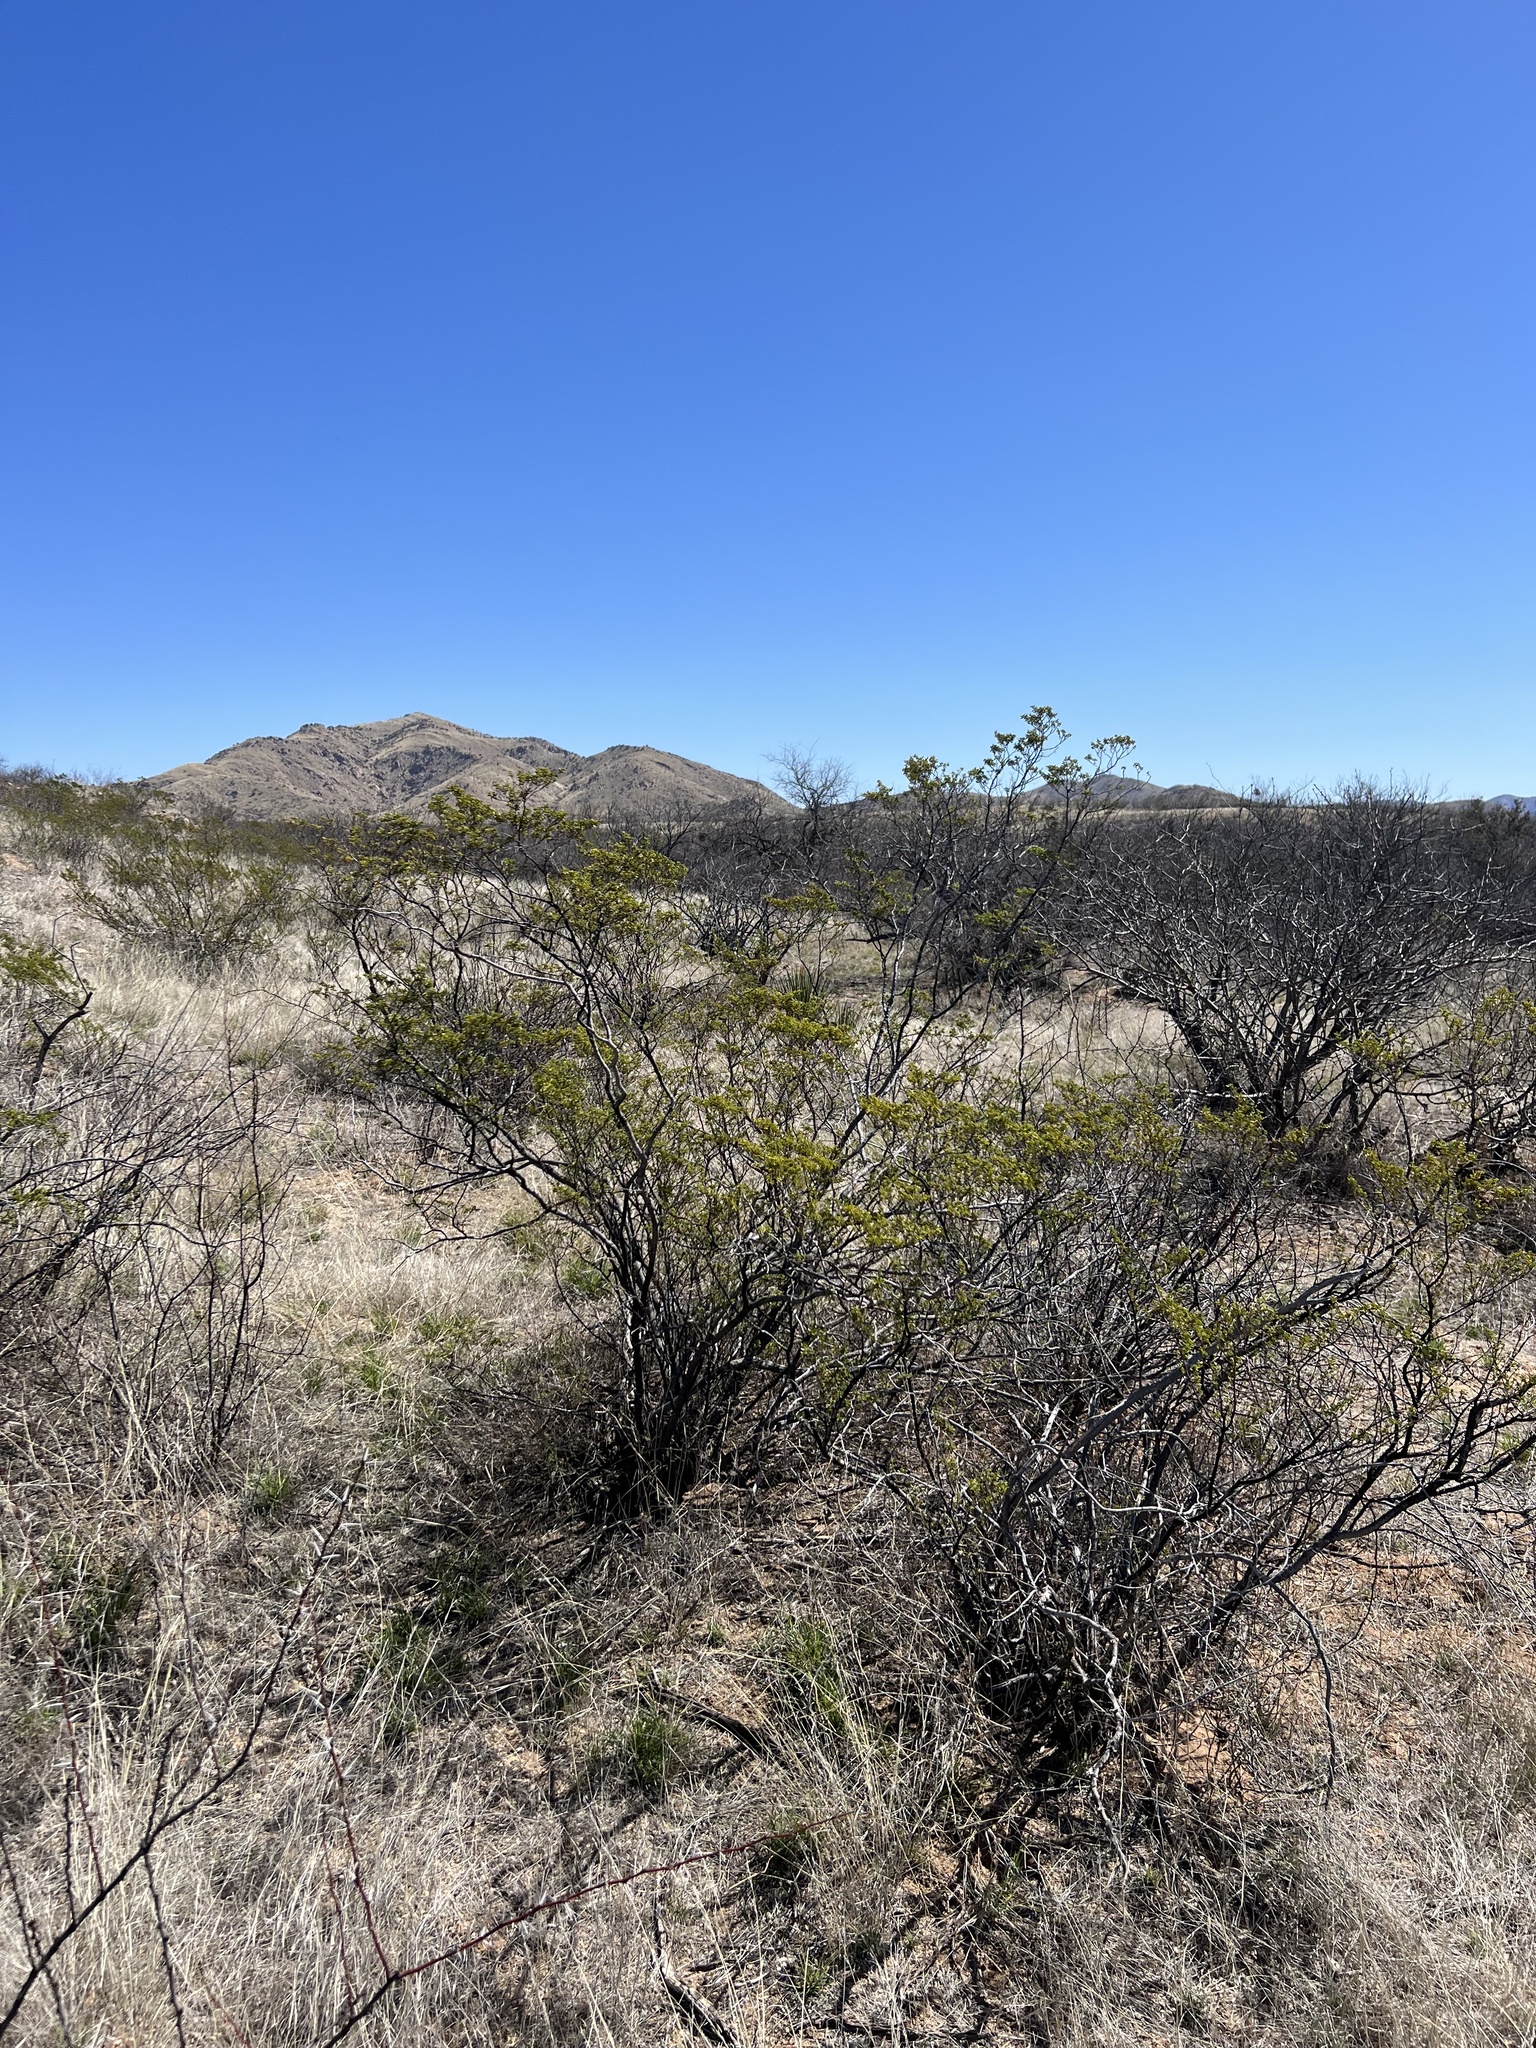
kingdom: Plantae
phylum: Tracheophyta
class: Magnoliopsida
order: Zygophyllales
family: Zygophyllaceae
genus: Larrea
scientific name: Larrea tridentata
